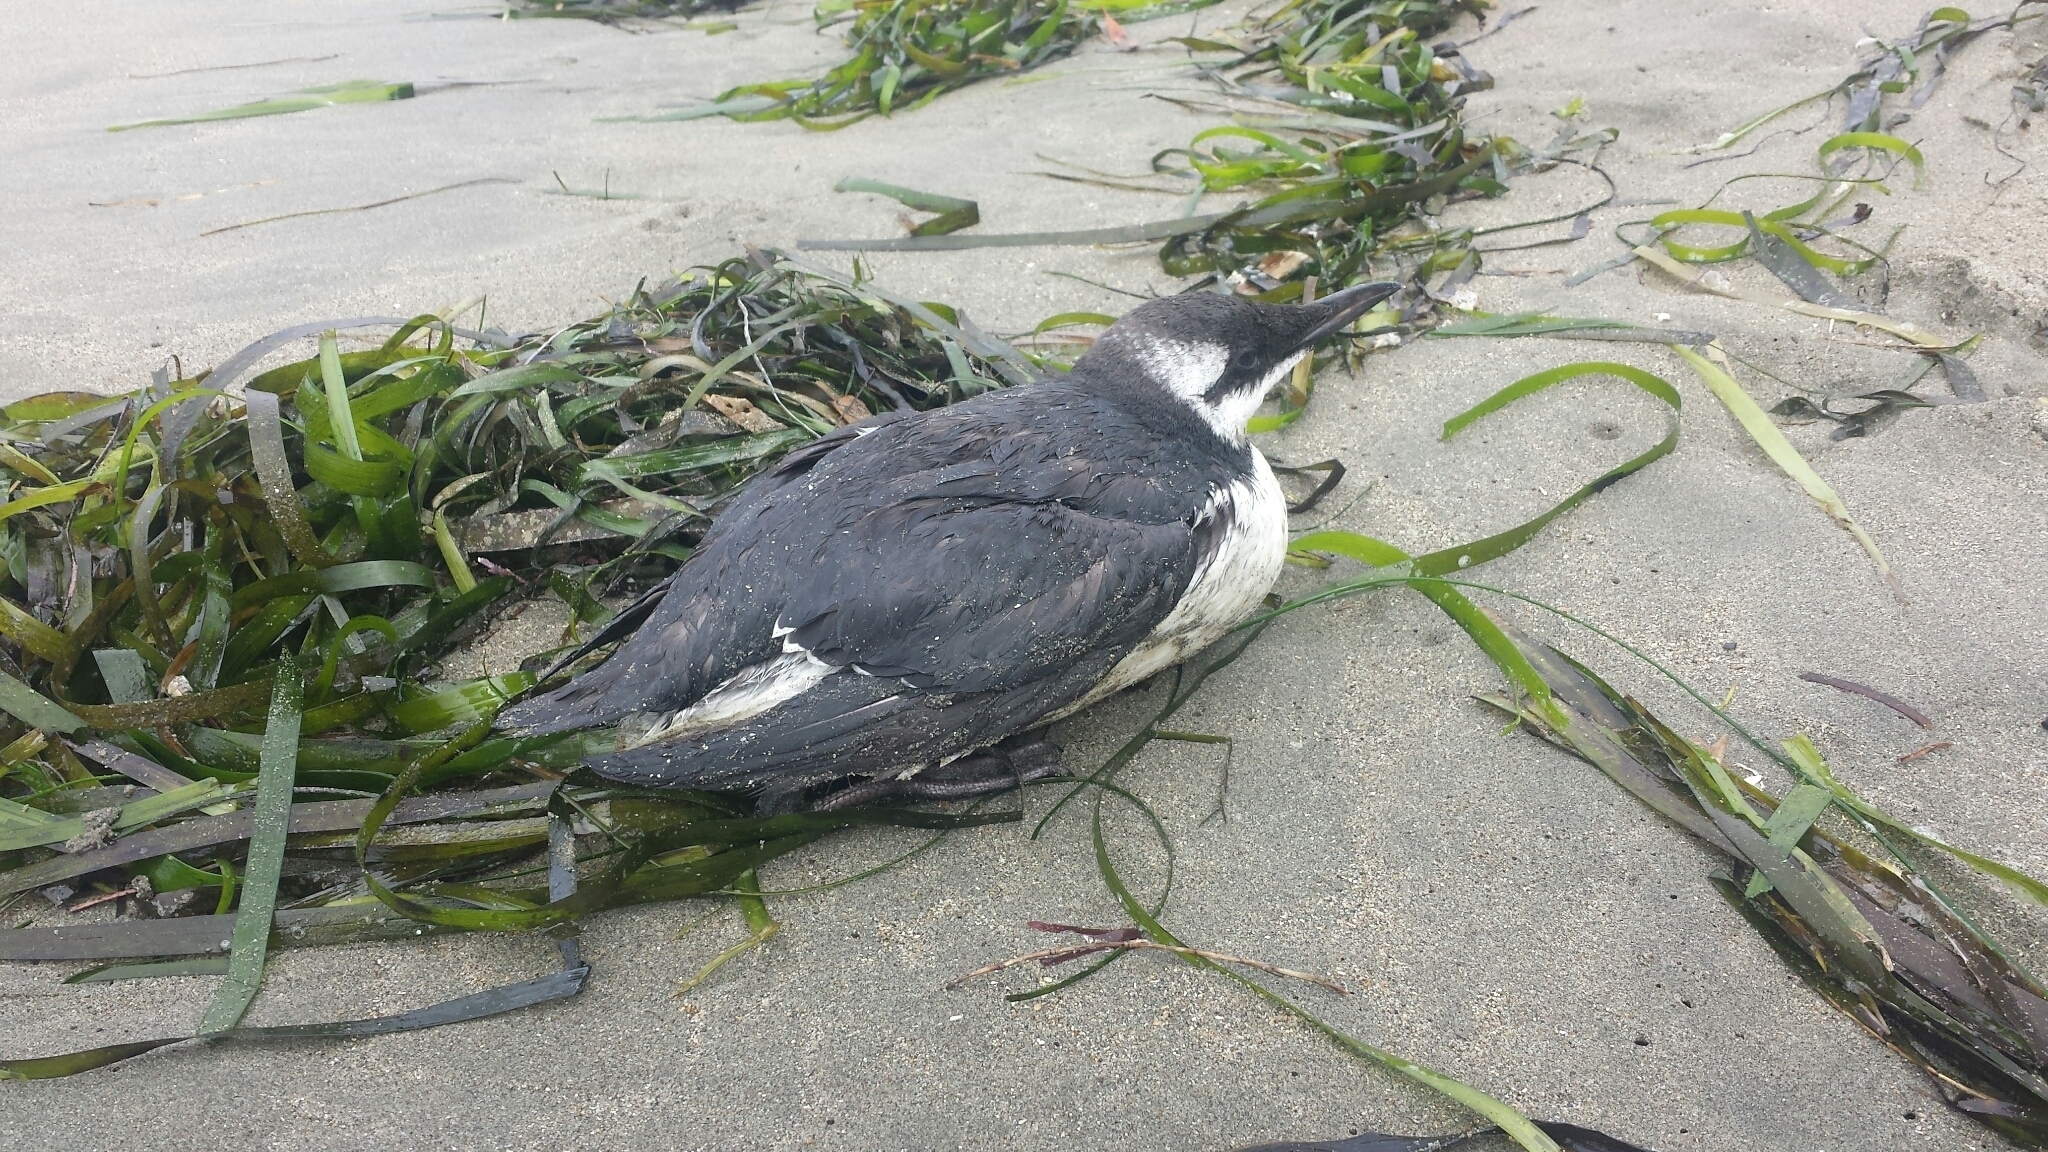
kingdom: Animalia
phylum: Chordata
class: Aves
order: Charadriiformes
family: Alcidae
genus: Uria
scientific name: Uria aalge
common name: Common murre
